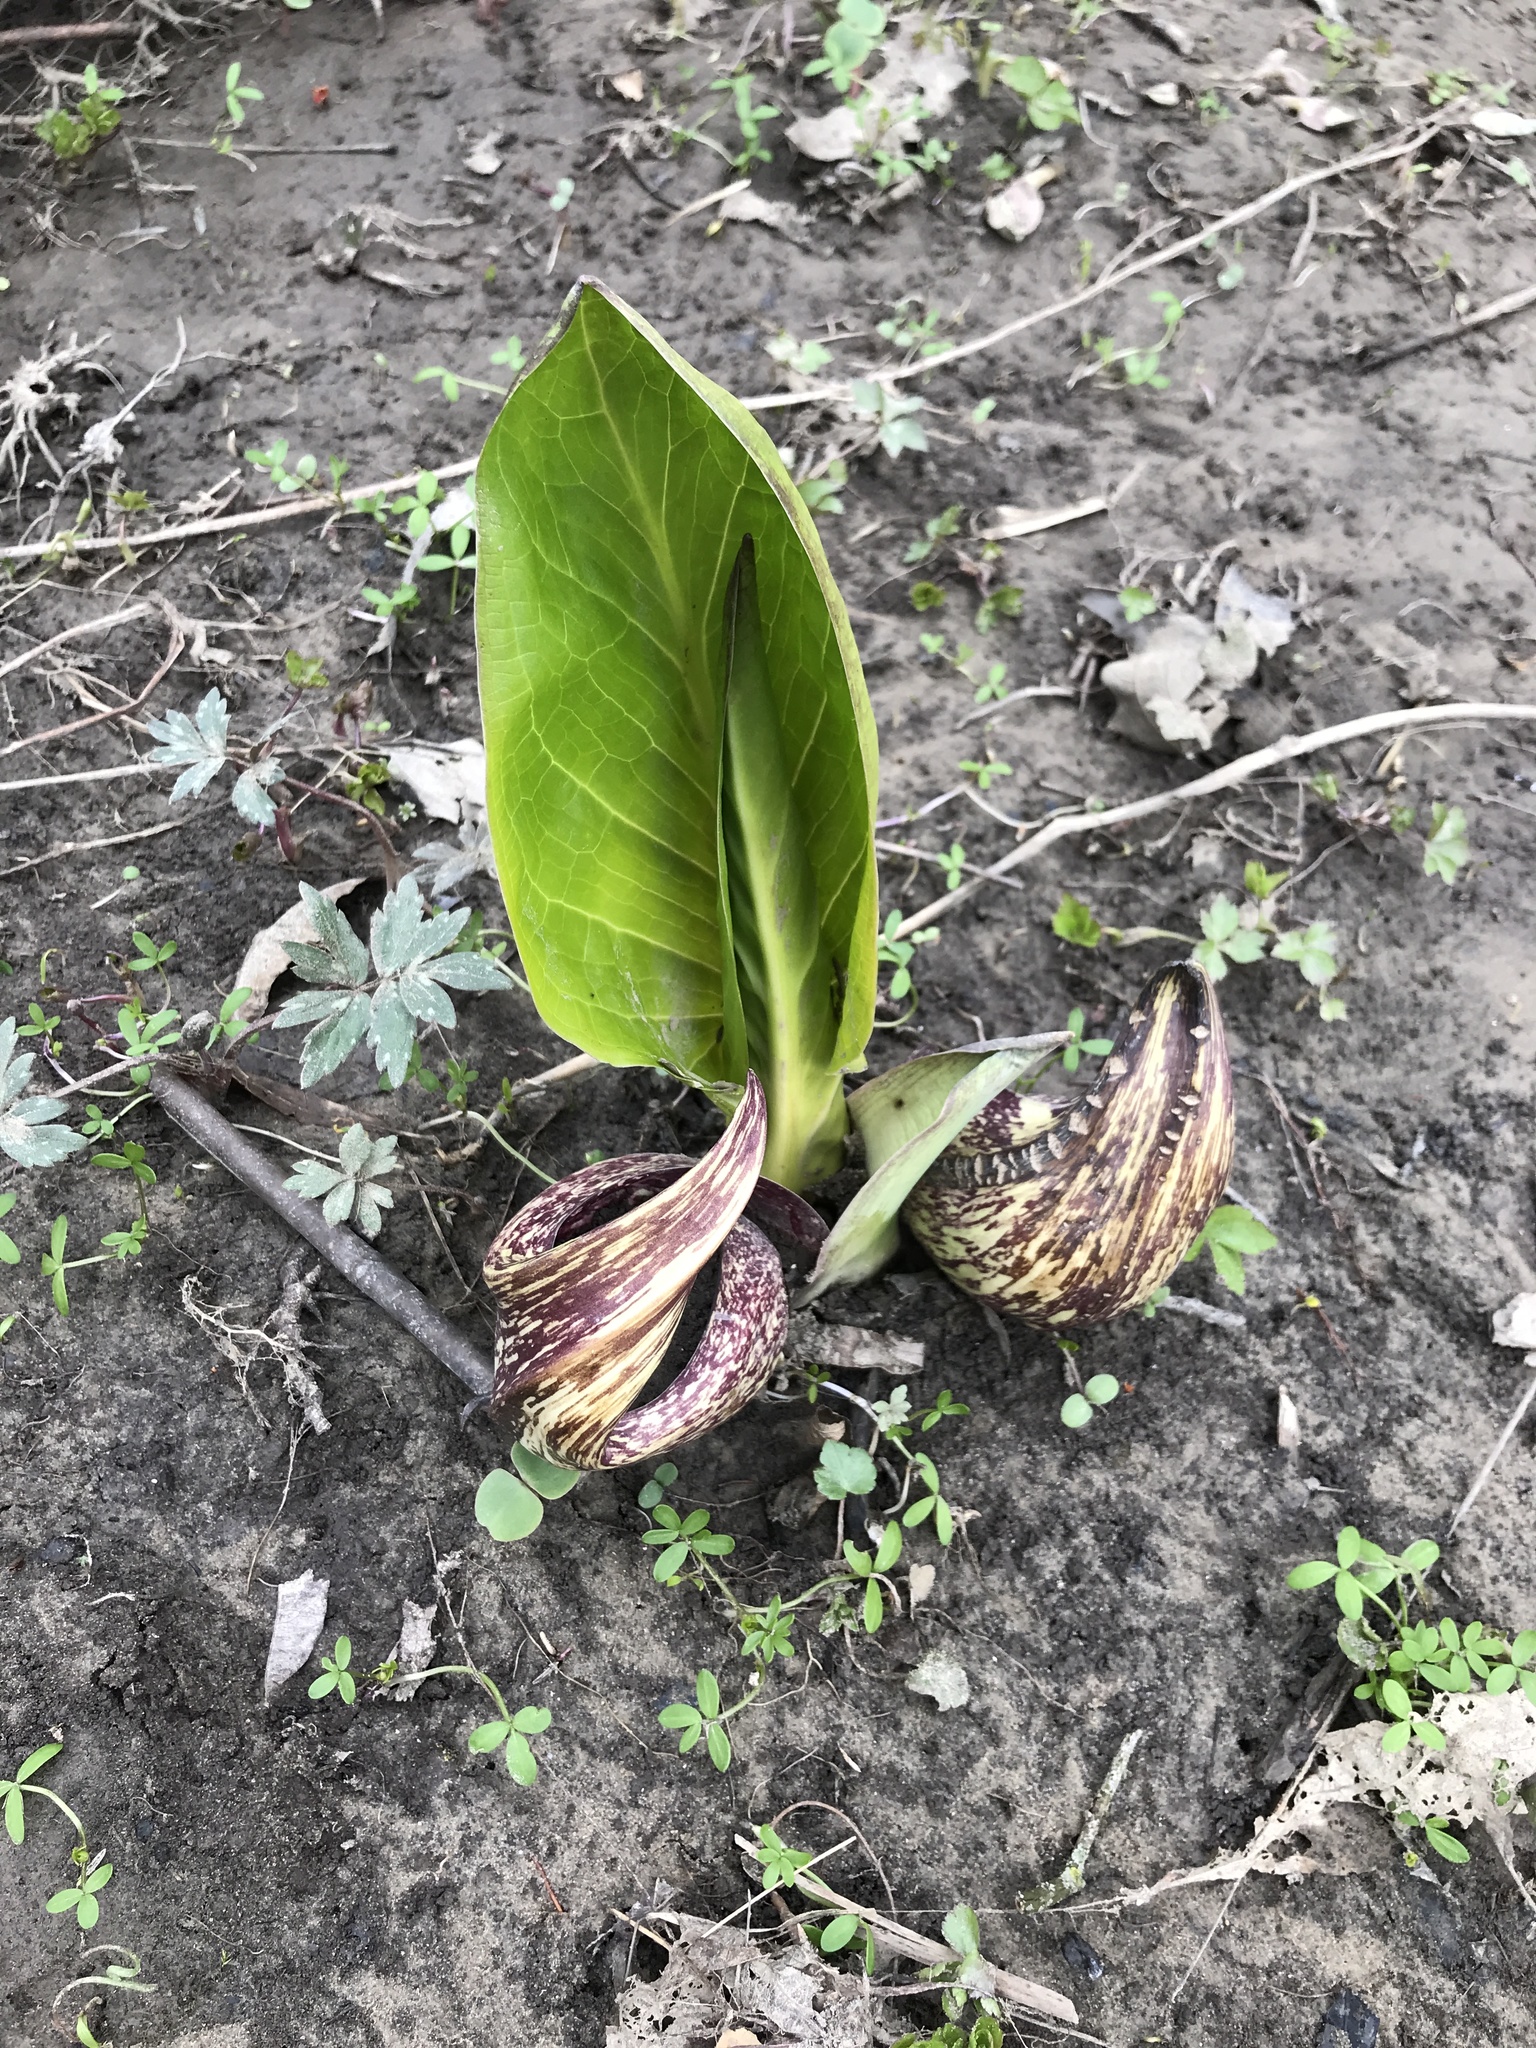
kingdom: Plantae
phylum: Tracheophyta
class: Liliopsida
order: Alismatales
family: Araceae
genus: Symplocarpus
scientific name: Symplocarpus foetidus
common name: Eastern skunk cabbage
